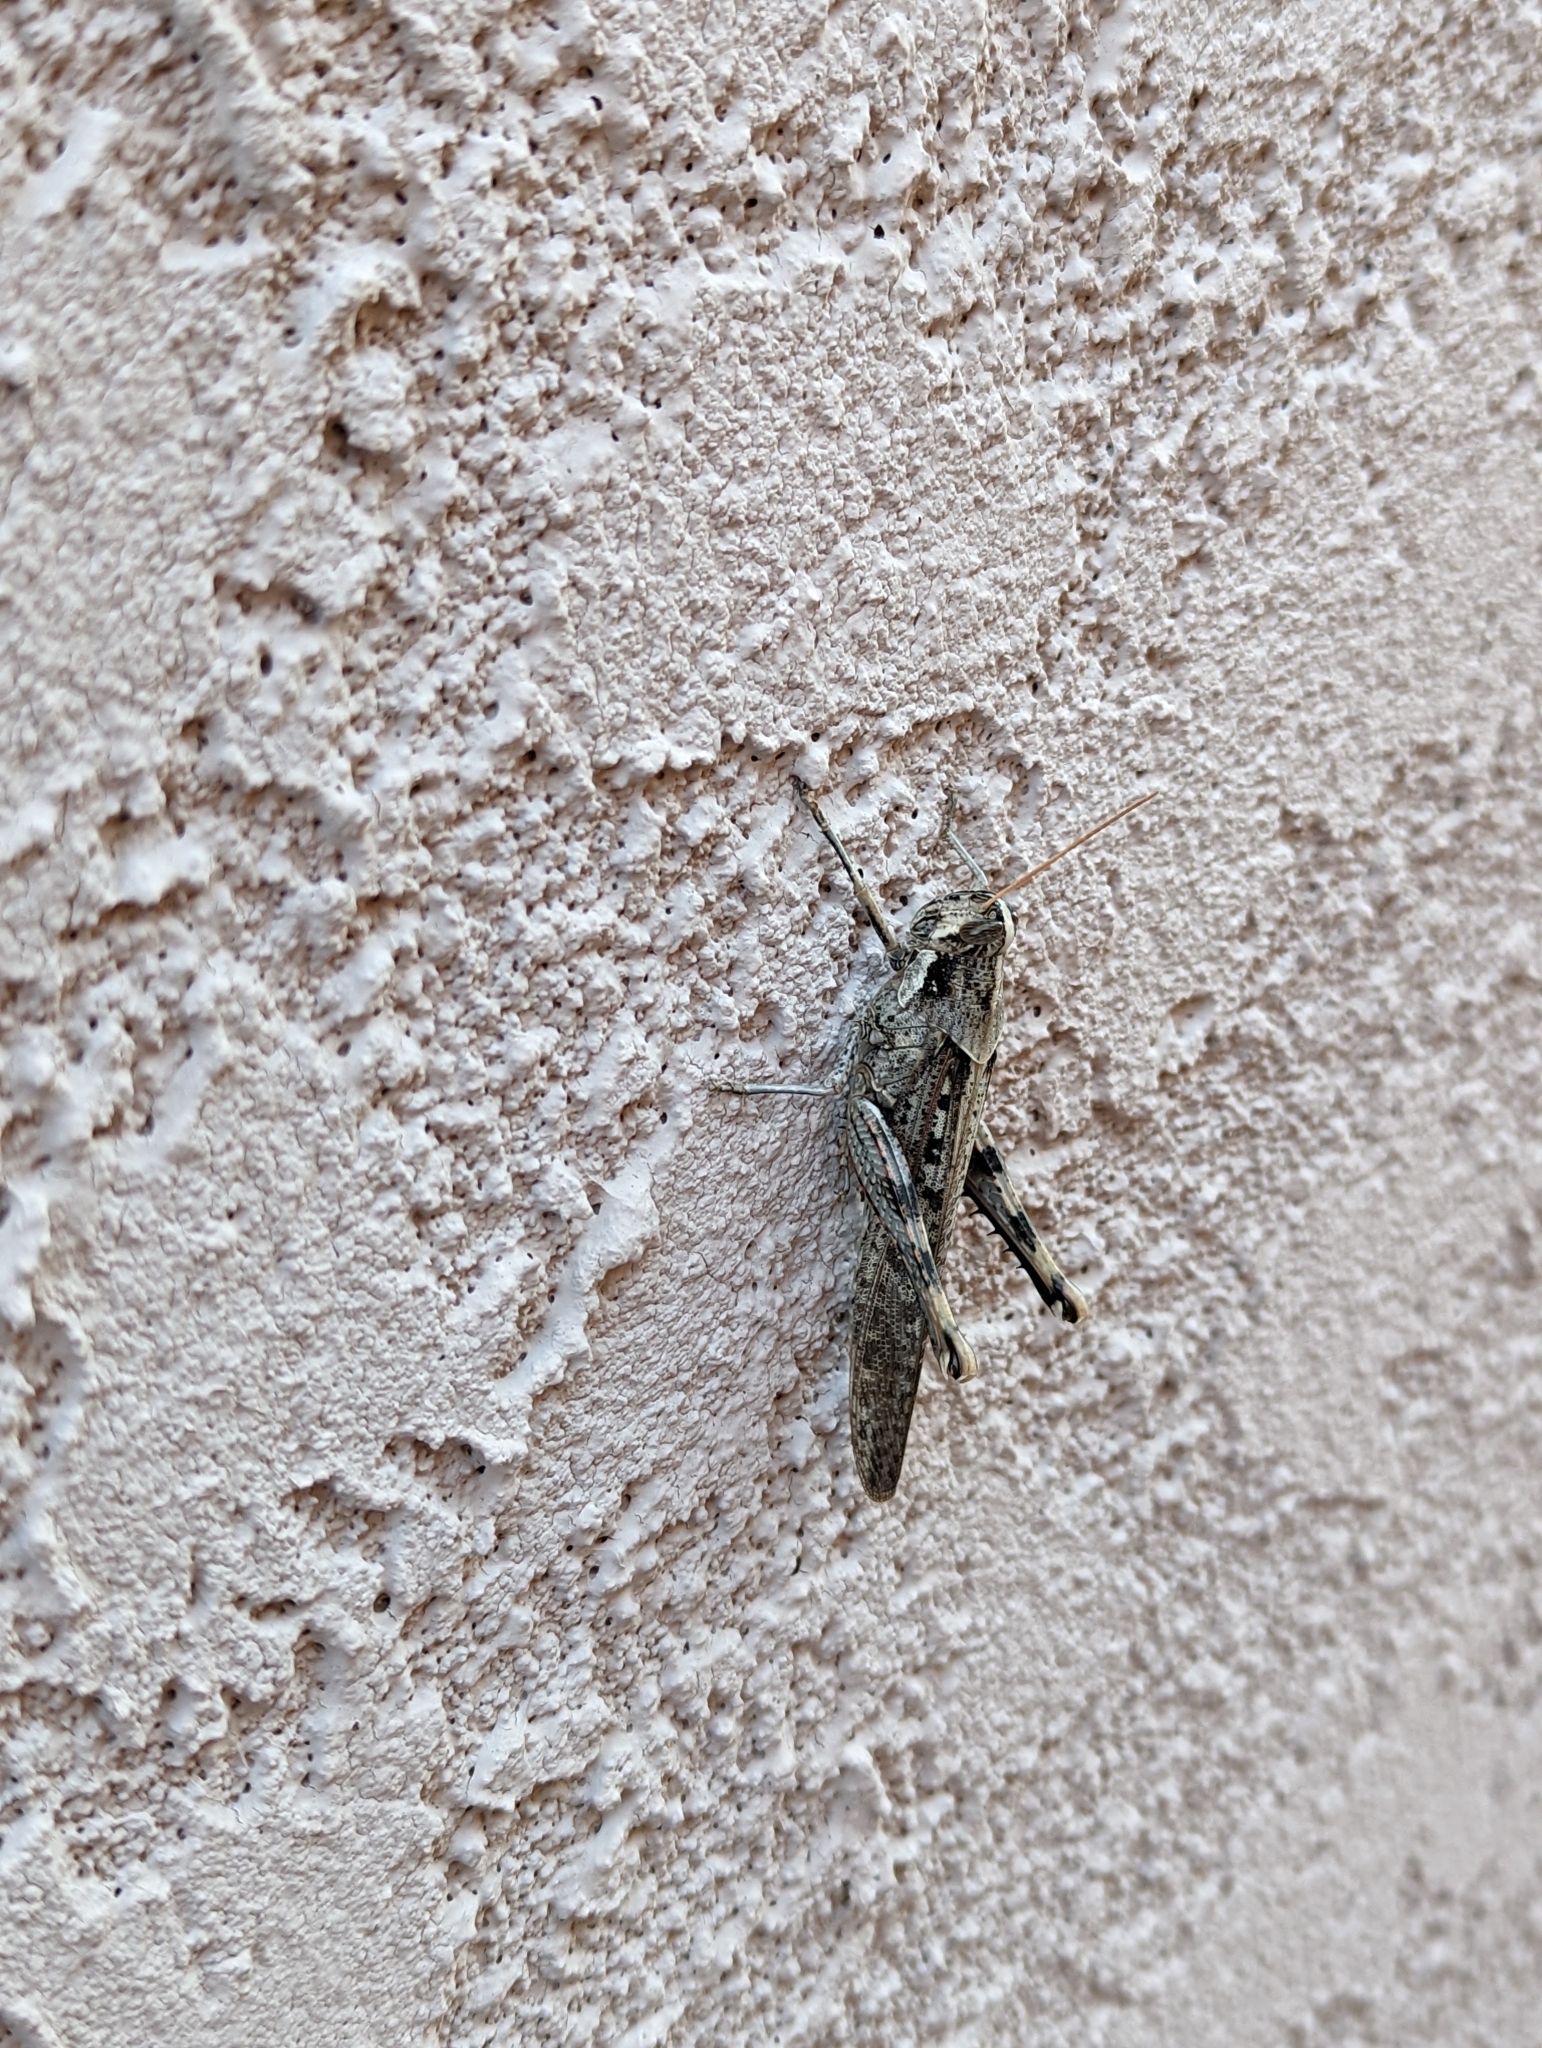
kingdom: Animalia
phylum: Arthropoda
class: Insecta
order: Orthoptera
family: Acrididae
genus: Schistocerca
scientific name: Schistocerca nitens
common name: Vagrant grasshopper
